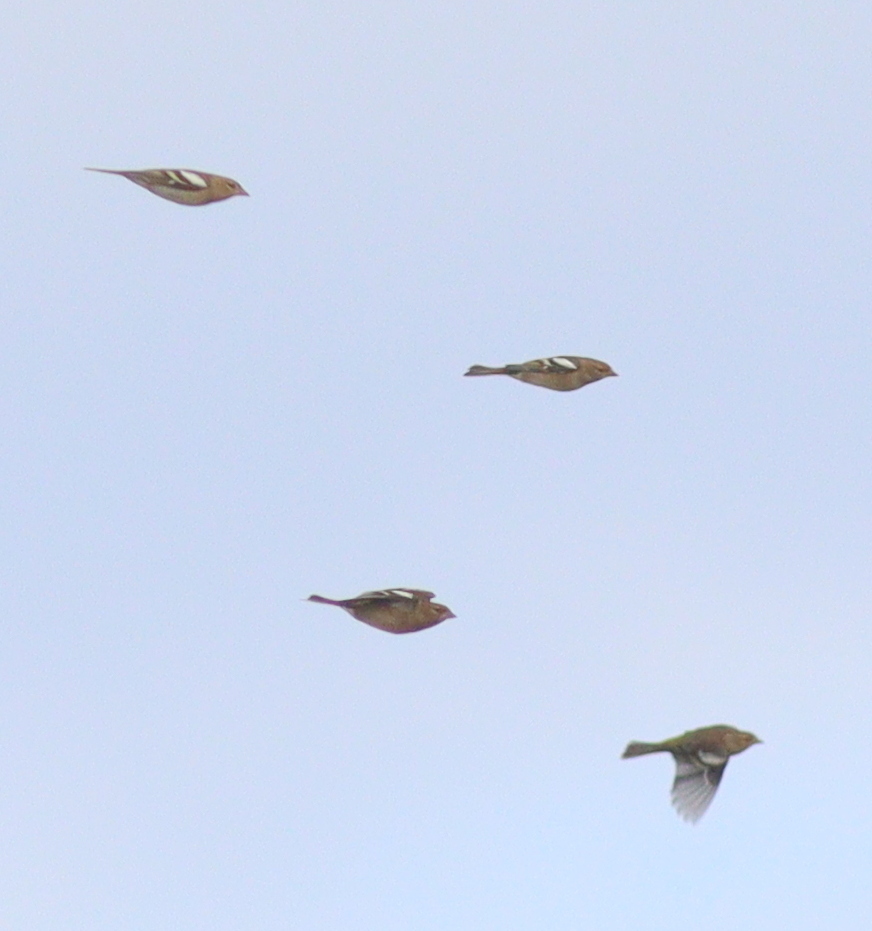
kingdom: Animalia
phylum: Chordata
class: Aves
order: Passeriformes
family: Fringillidae
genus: Fringilla
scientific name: Fringilla coelebs
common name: Common chaffinch
